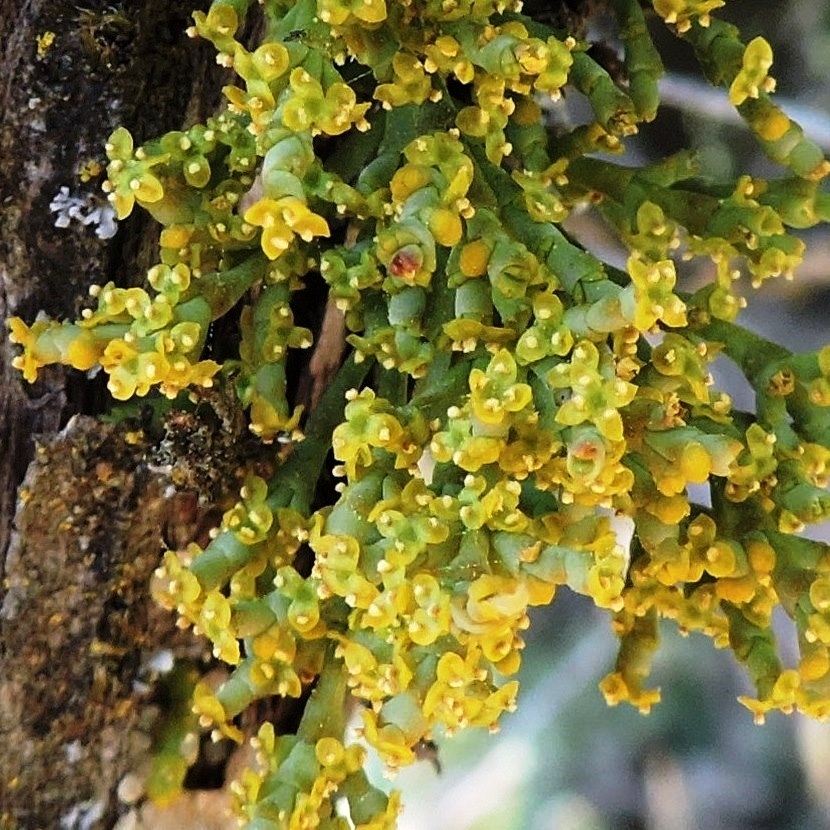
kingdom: Plantae
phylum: Tracheophyta
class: Magnoliopsida
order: Santalales
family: Viscaceae
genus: Arceuthobium
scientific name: Arceuthobium oxycedri
